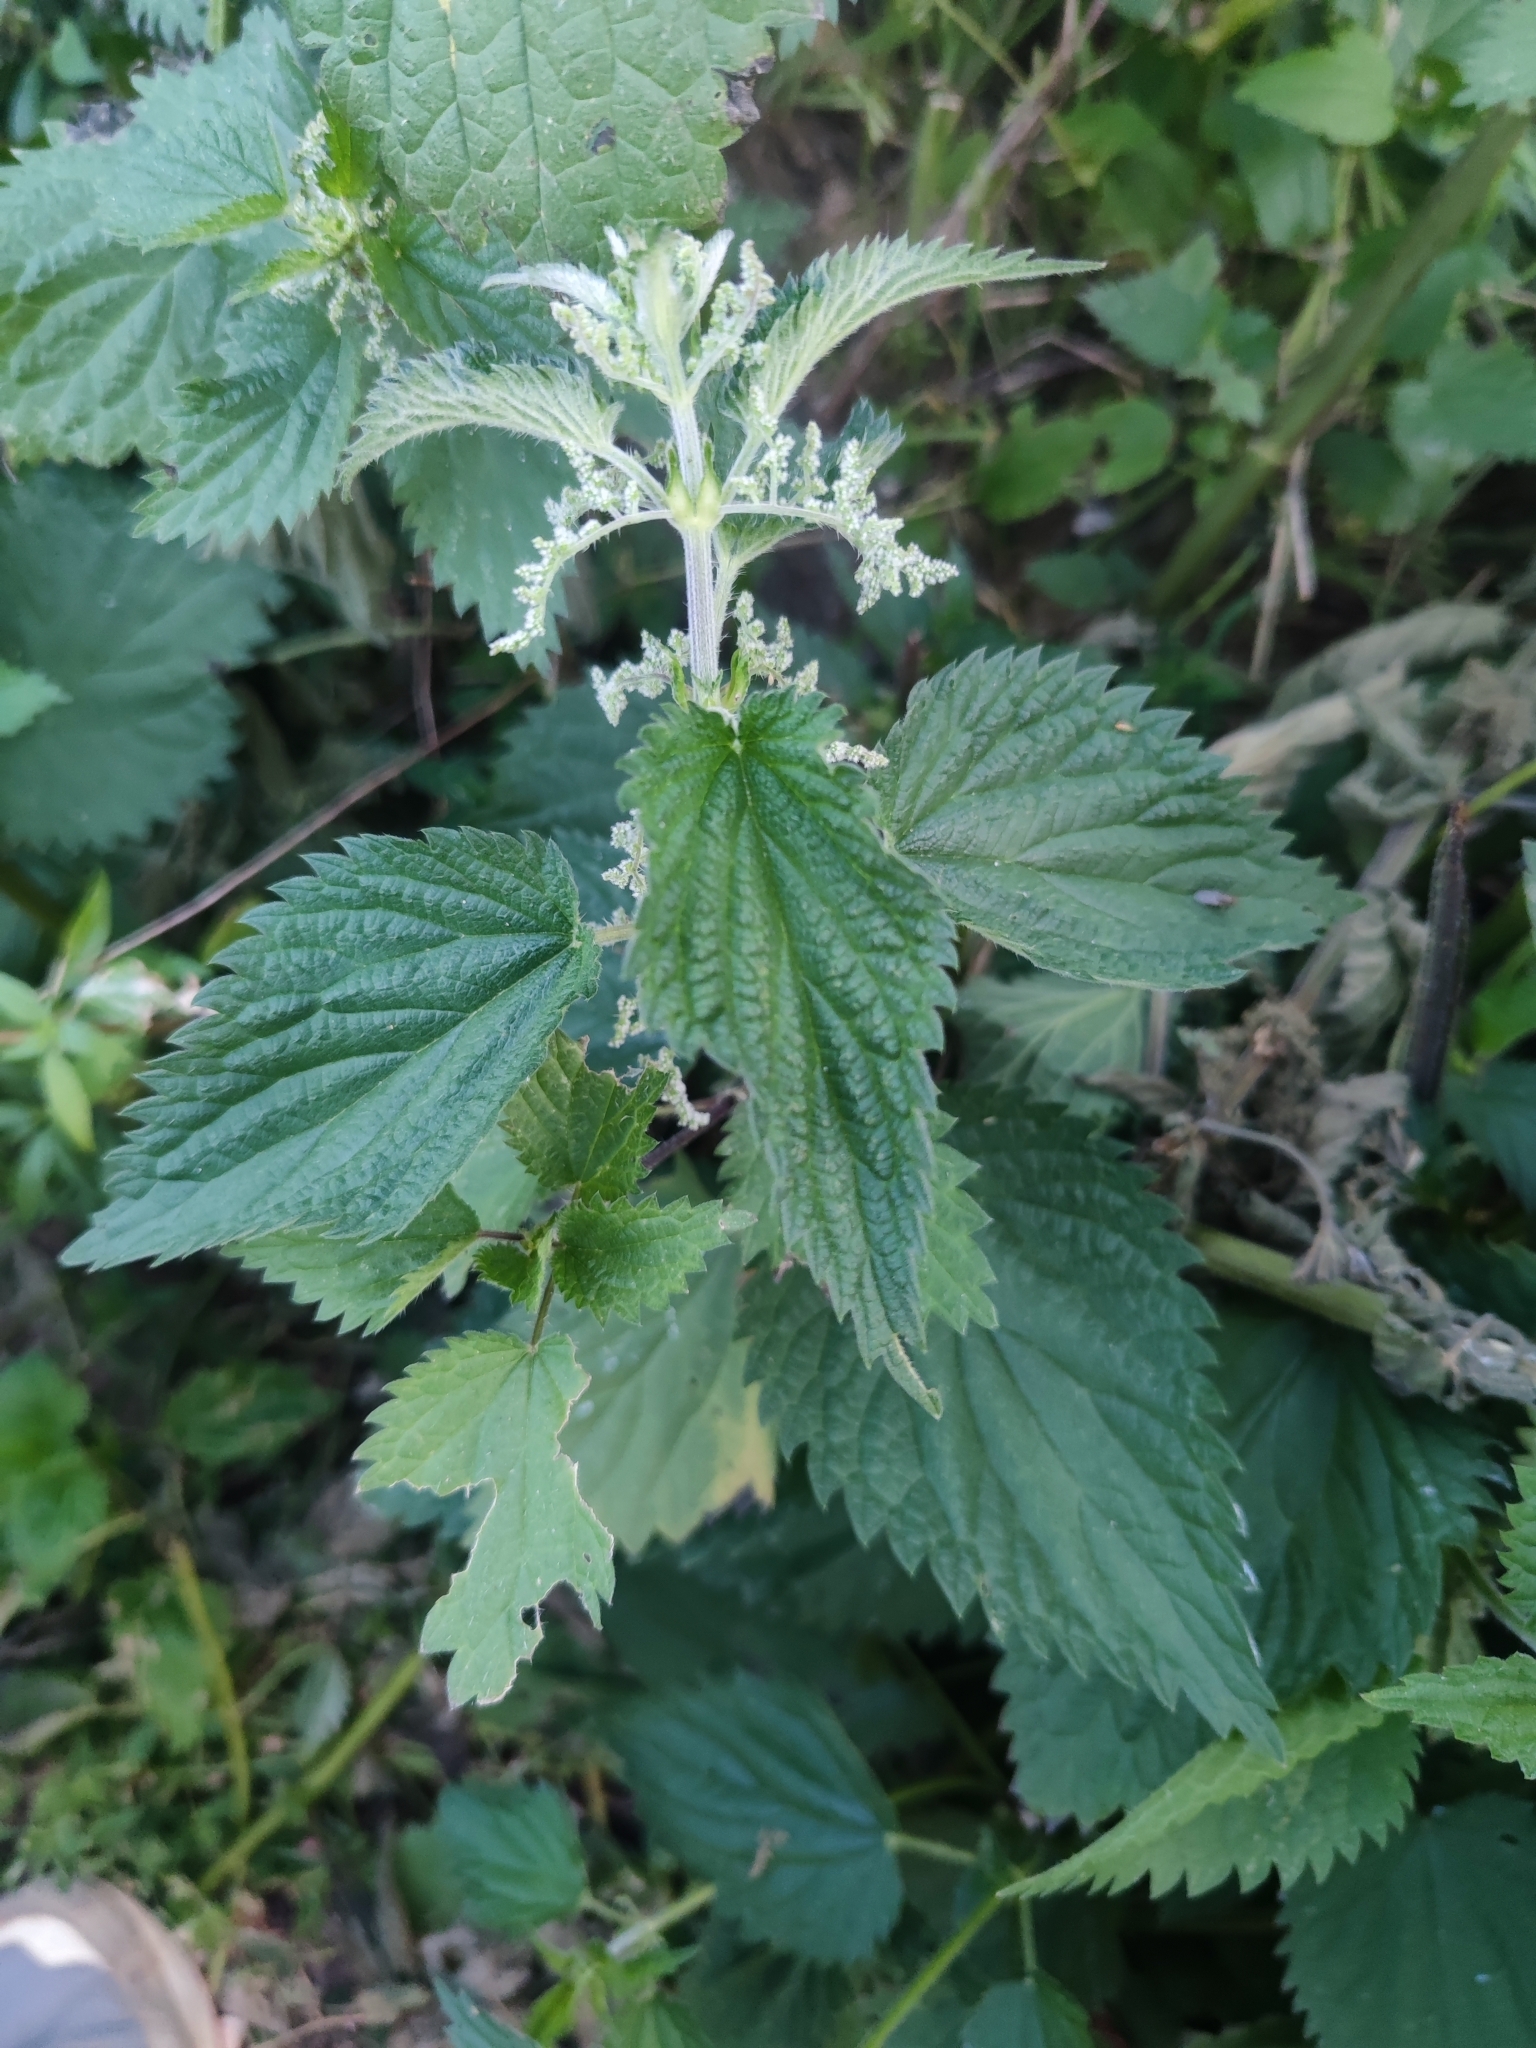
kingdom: Plantae
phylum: Tracheophyta
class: Magnoliopsida
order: Rosales
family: Urticaceae
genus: Urtica
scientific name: Urtica dioica
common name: Common nettle
